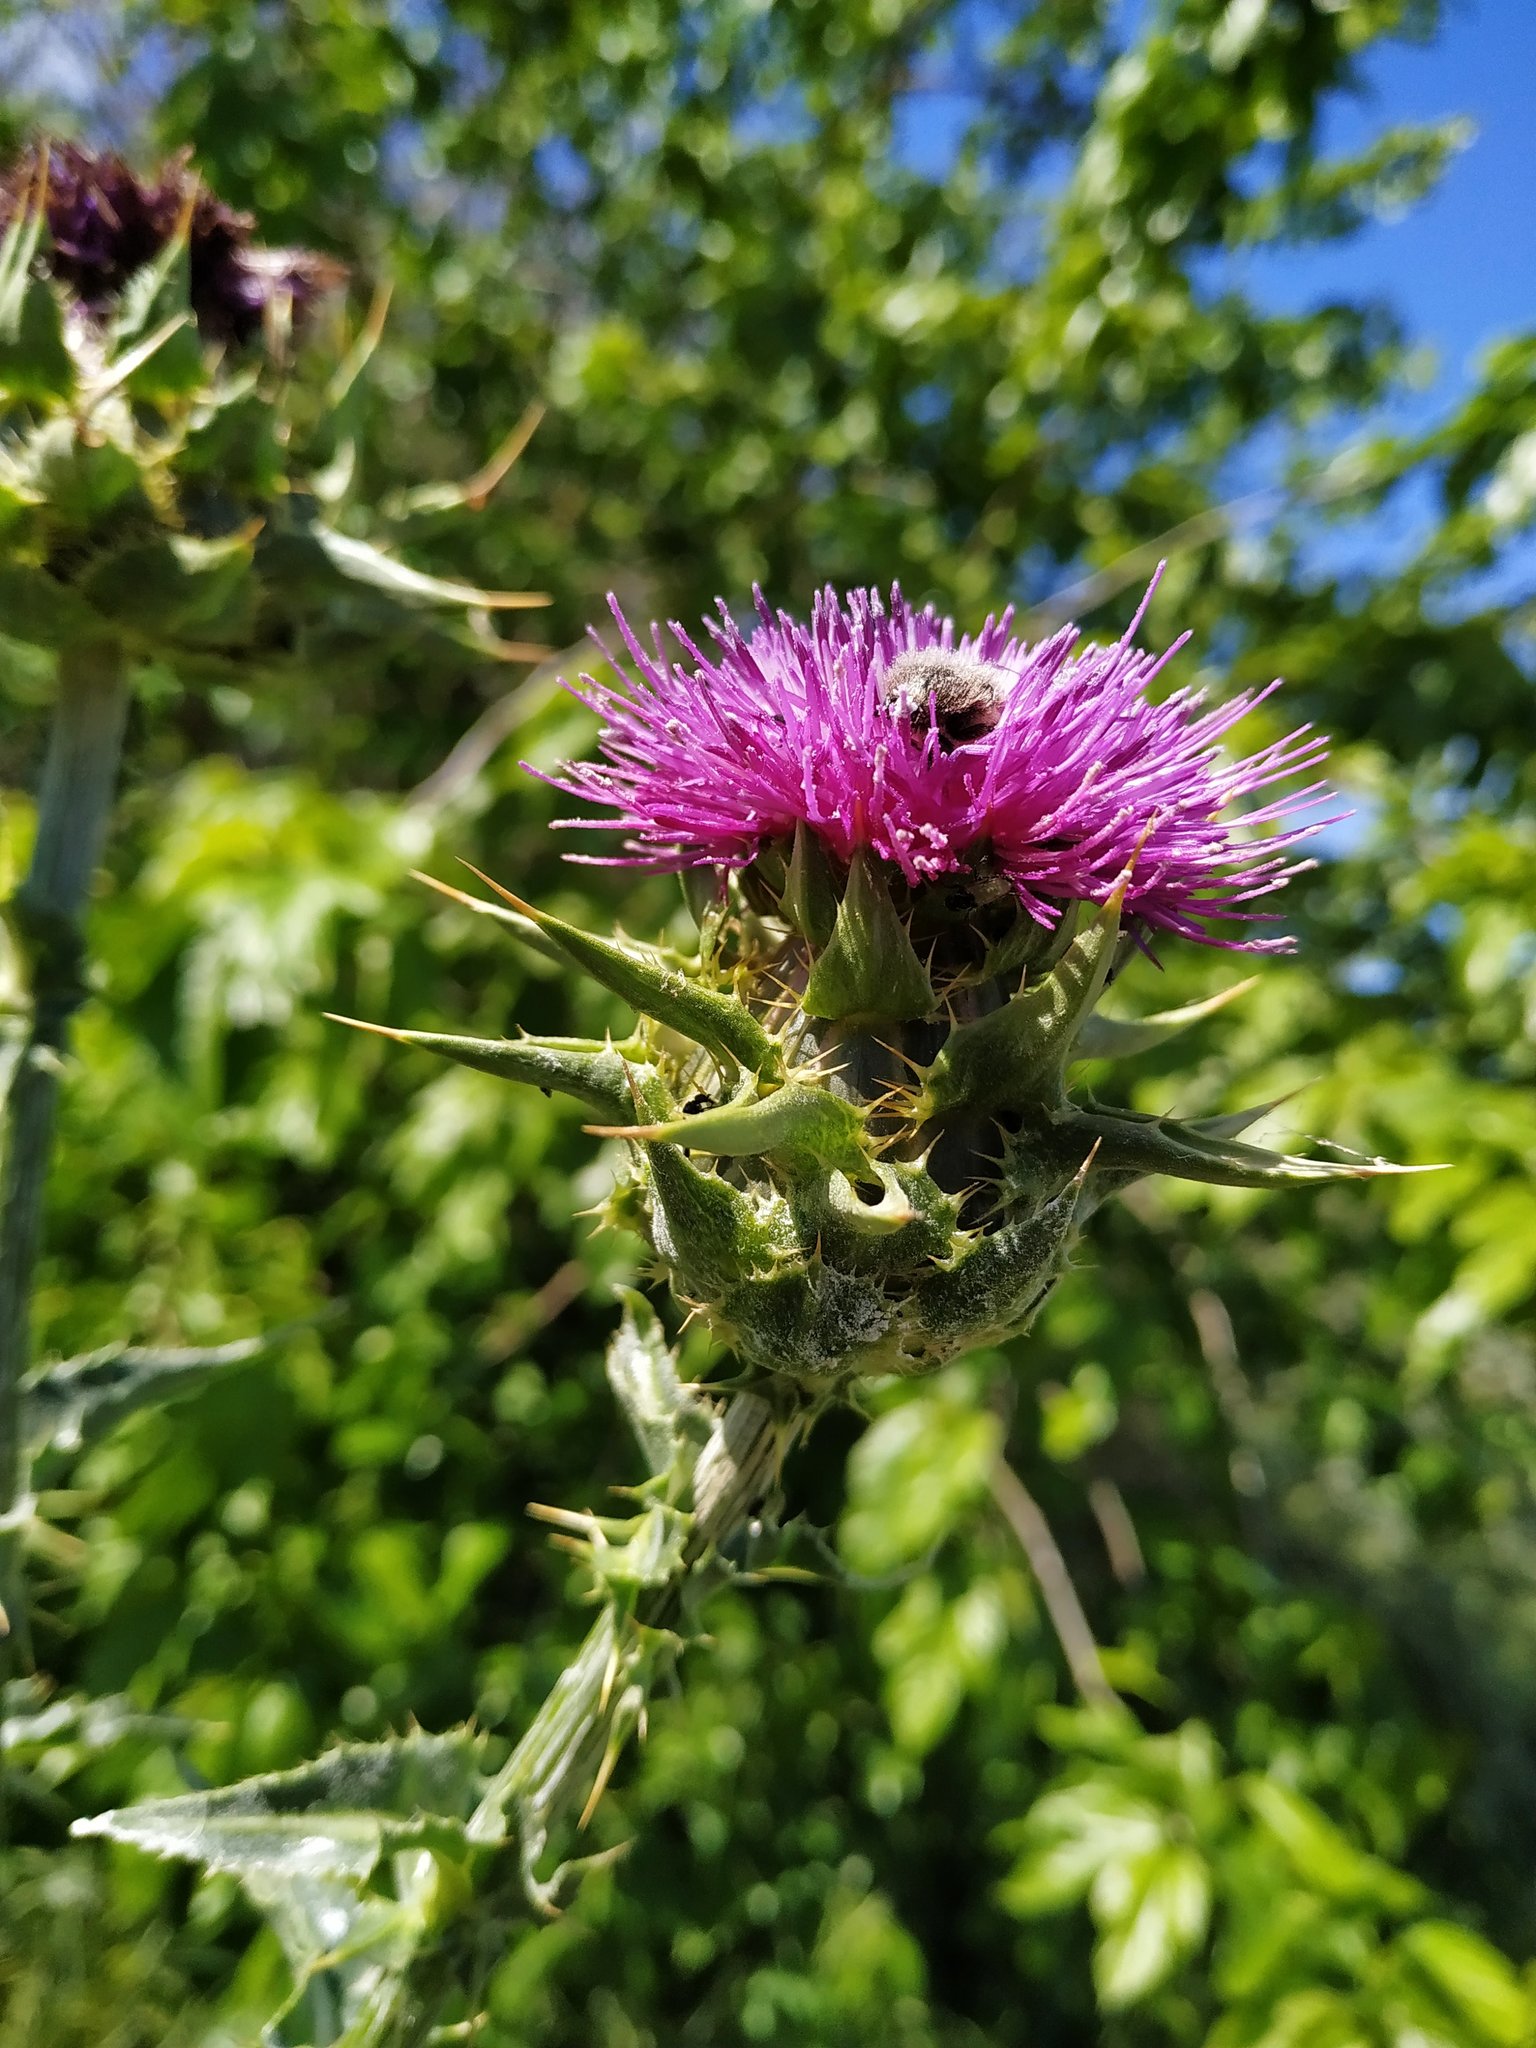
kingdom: Plantae
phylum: Tracheophyta
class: Magnoliopsida
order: Asterales
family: Asteraceae
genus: Silybum
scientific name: Silybum marianum
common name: Milk thistle
